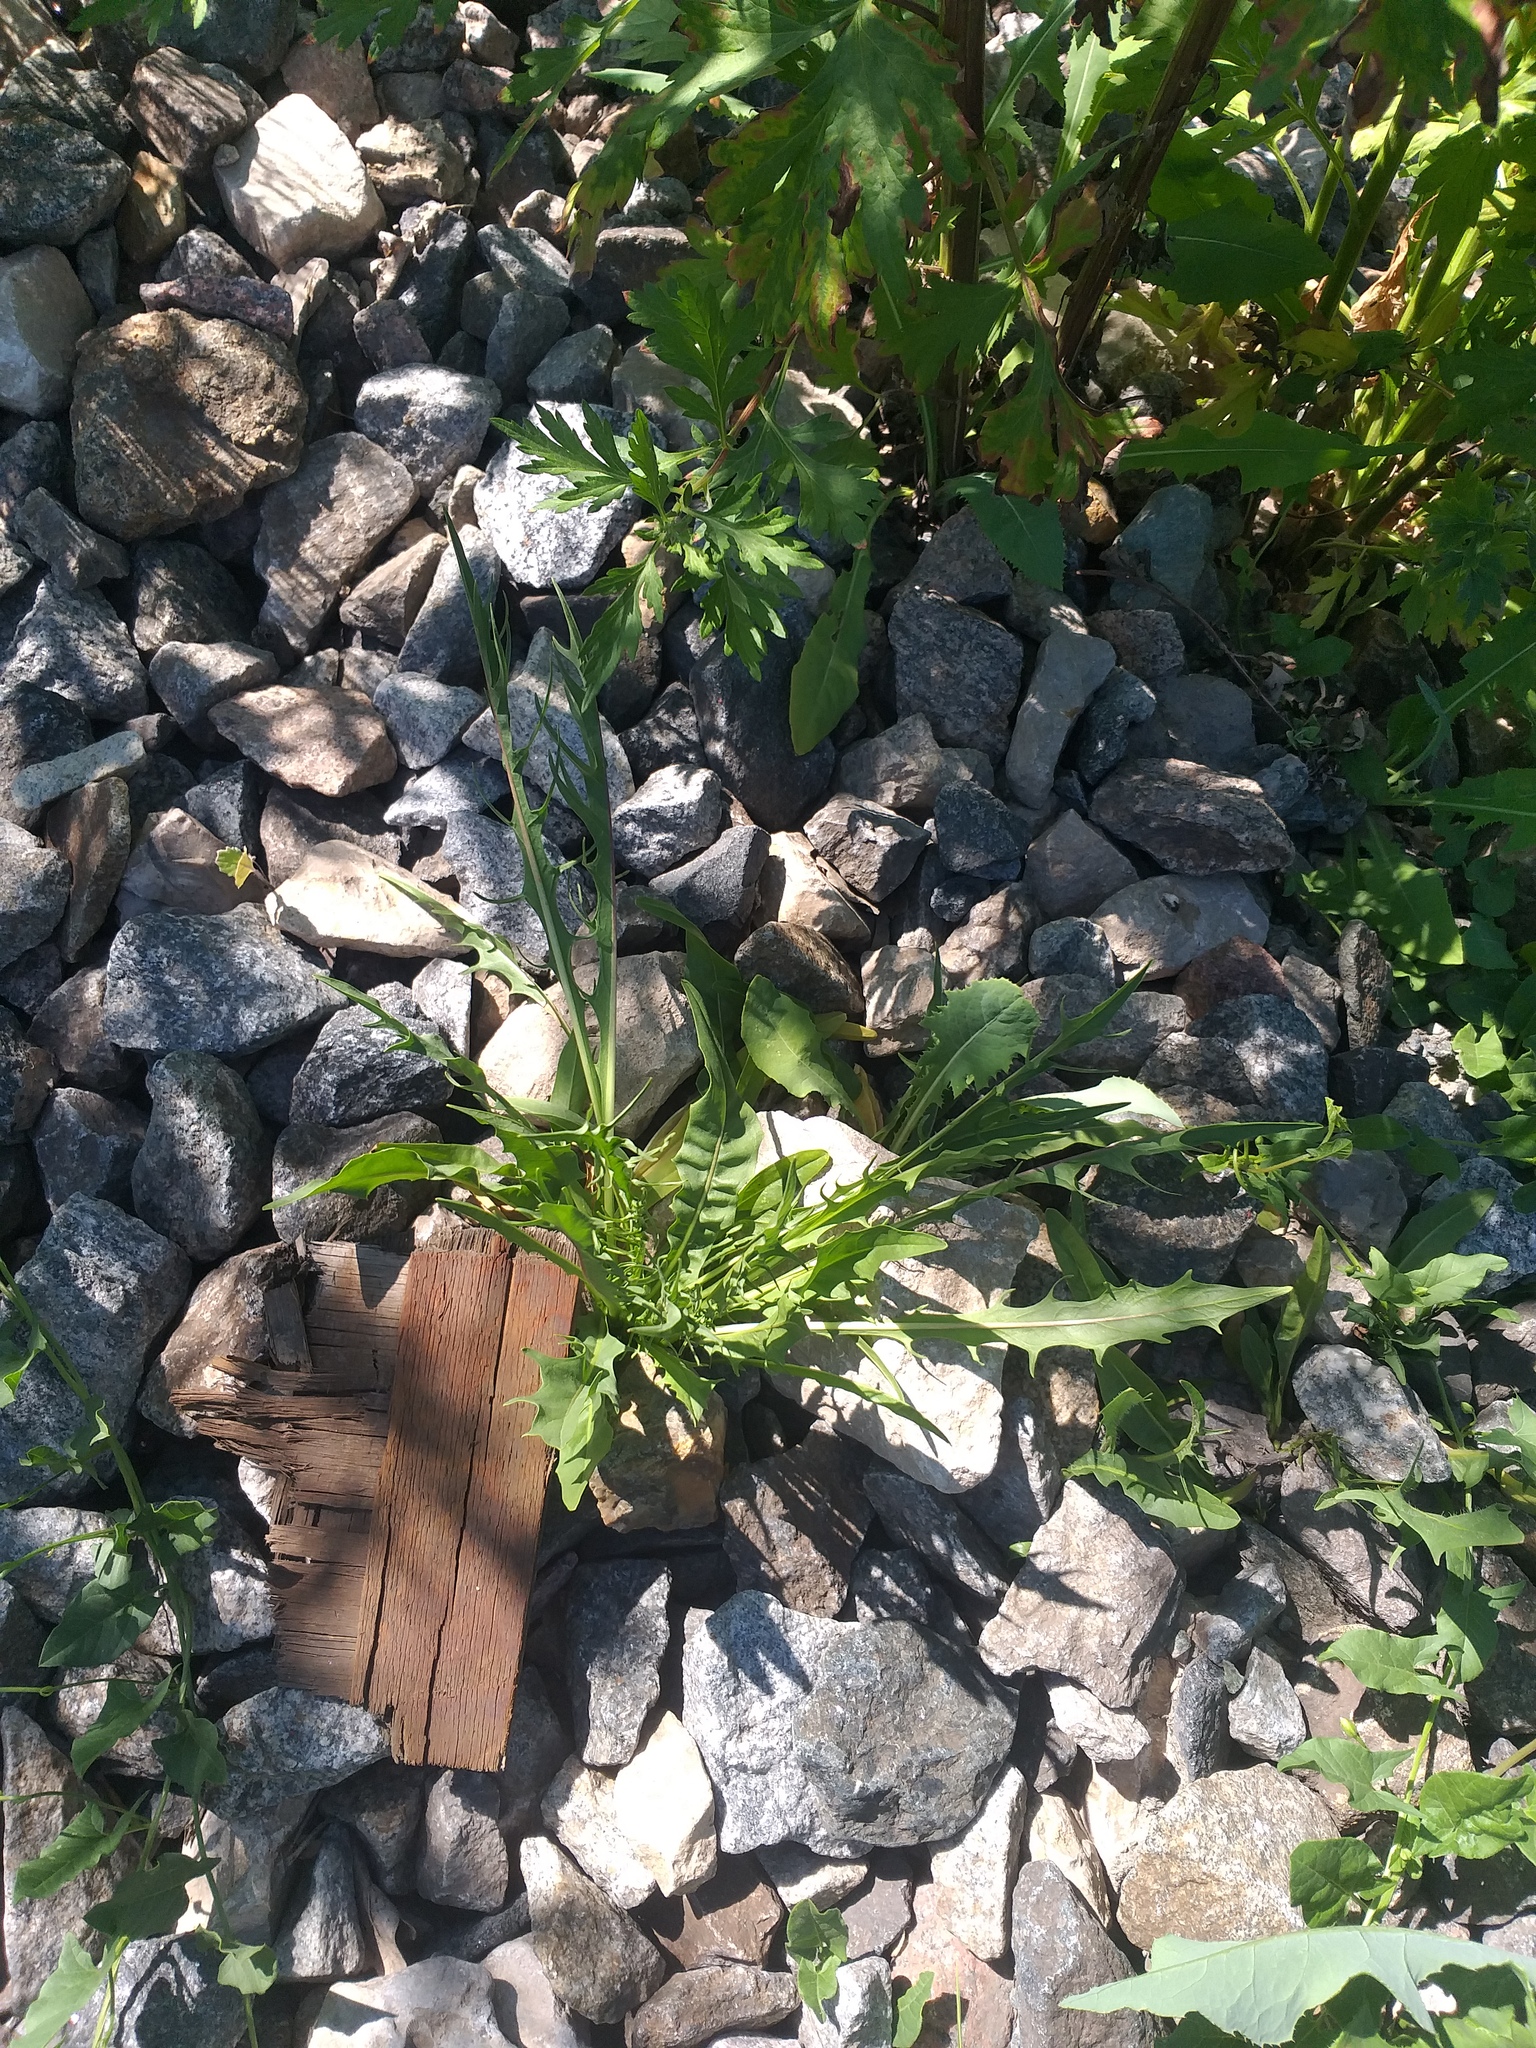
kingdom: Plantae
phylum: Tracheophyta
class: Magnoliopsida
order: Asterales
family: Asteraceae
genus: Scorzoneroides
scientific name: Scorzoneroides autumnalis
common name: Autumn hawkbit
